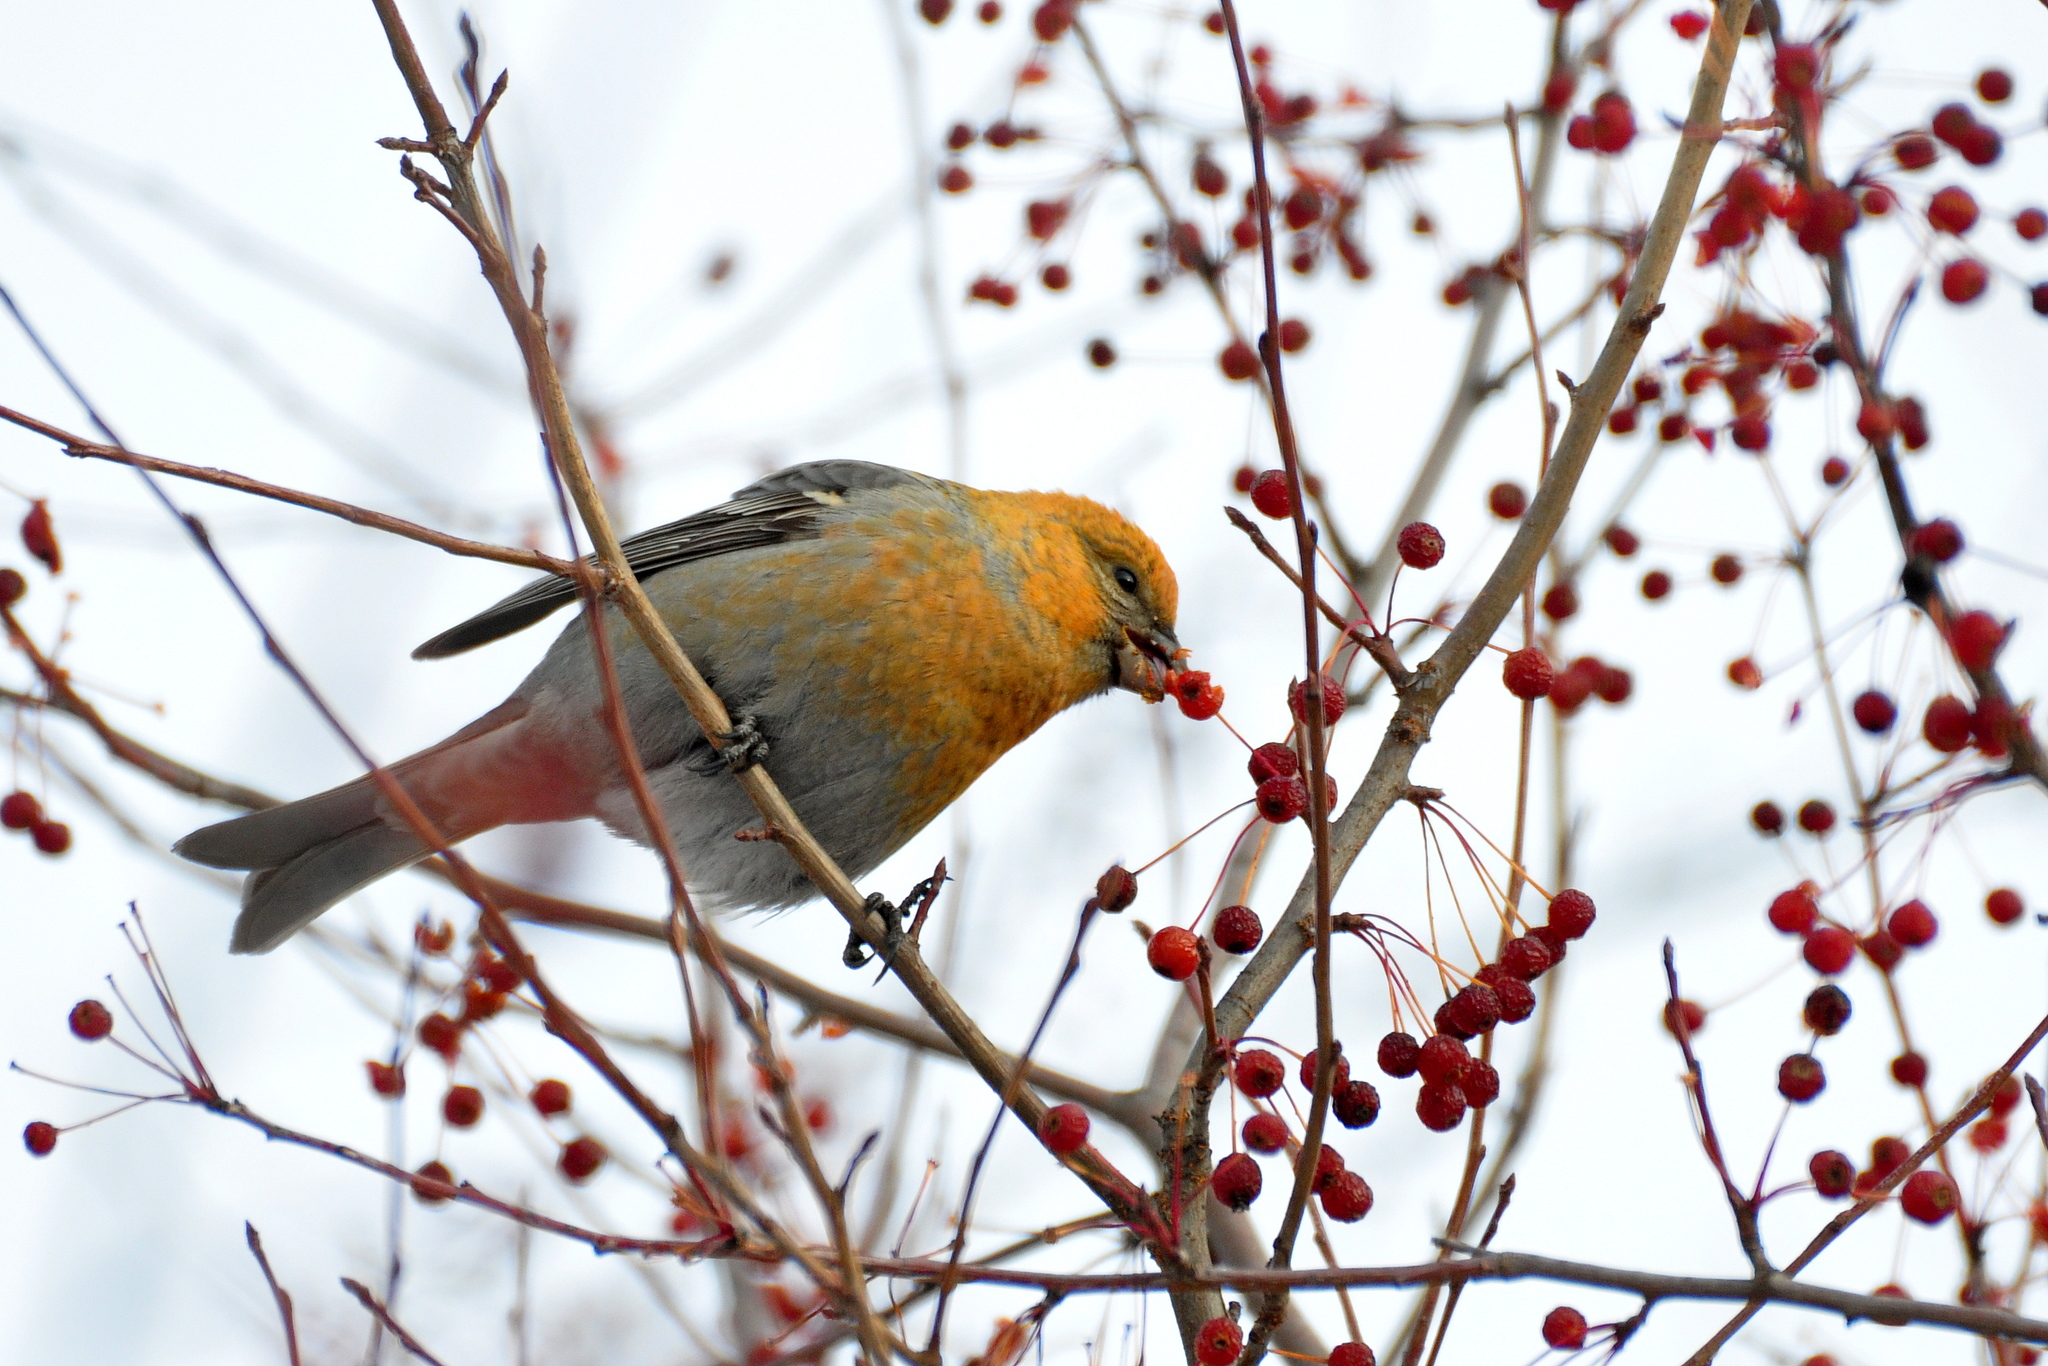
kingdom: Animalia
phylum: Chordata
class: Aves
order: Passeriformes
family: Fringillidae
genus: Pinicola
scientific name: Pinicola enucleator
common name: Pine grosbeak
